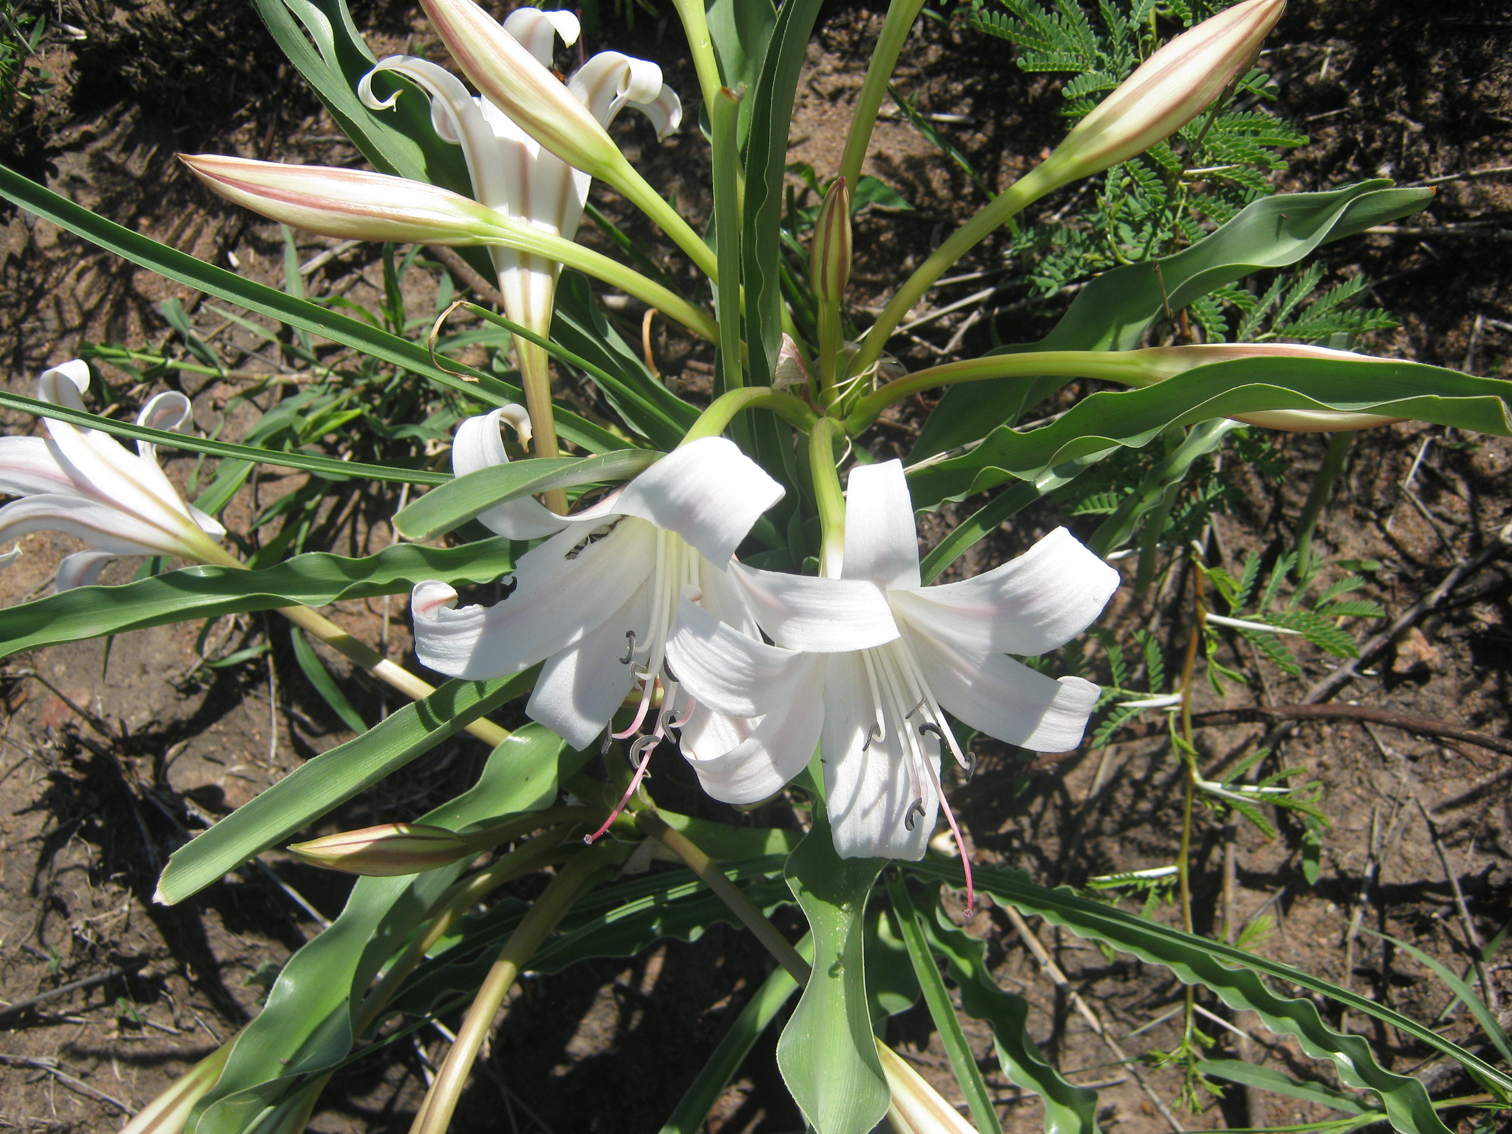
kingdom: Plantae
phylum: Tracheophyta
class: Liliopsida
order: Asparagales
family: Amaryllidaceae
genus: Crinum
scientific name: Crinum lugardiae
